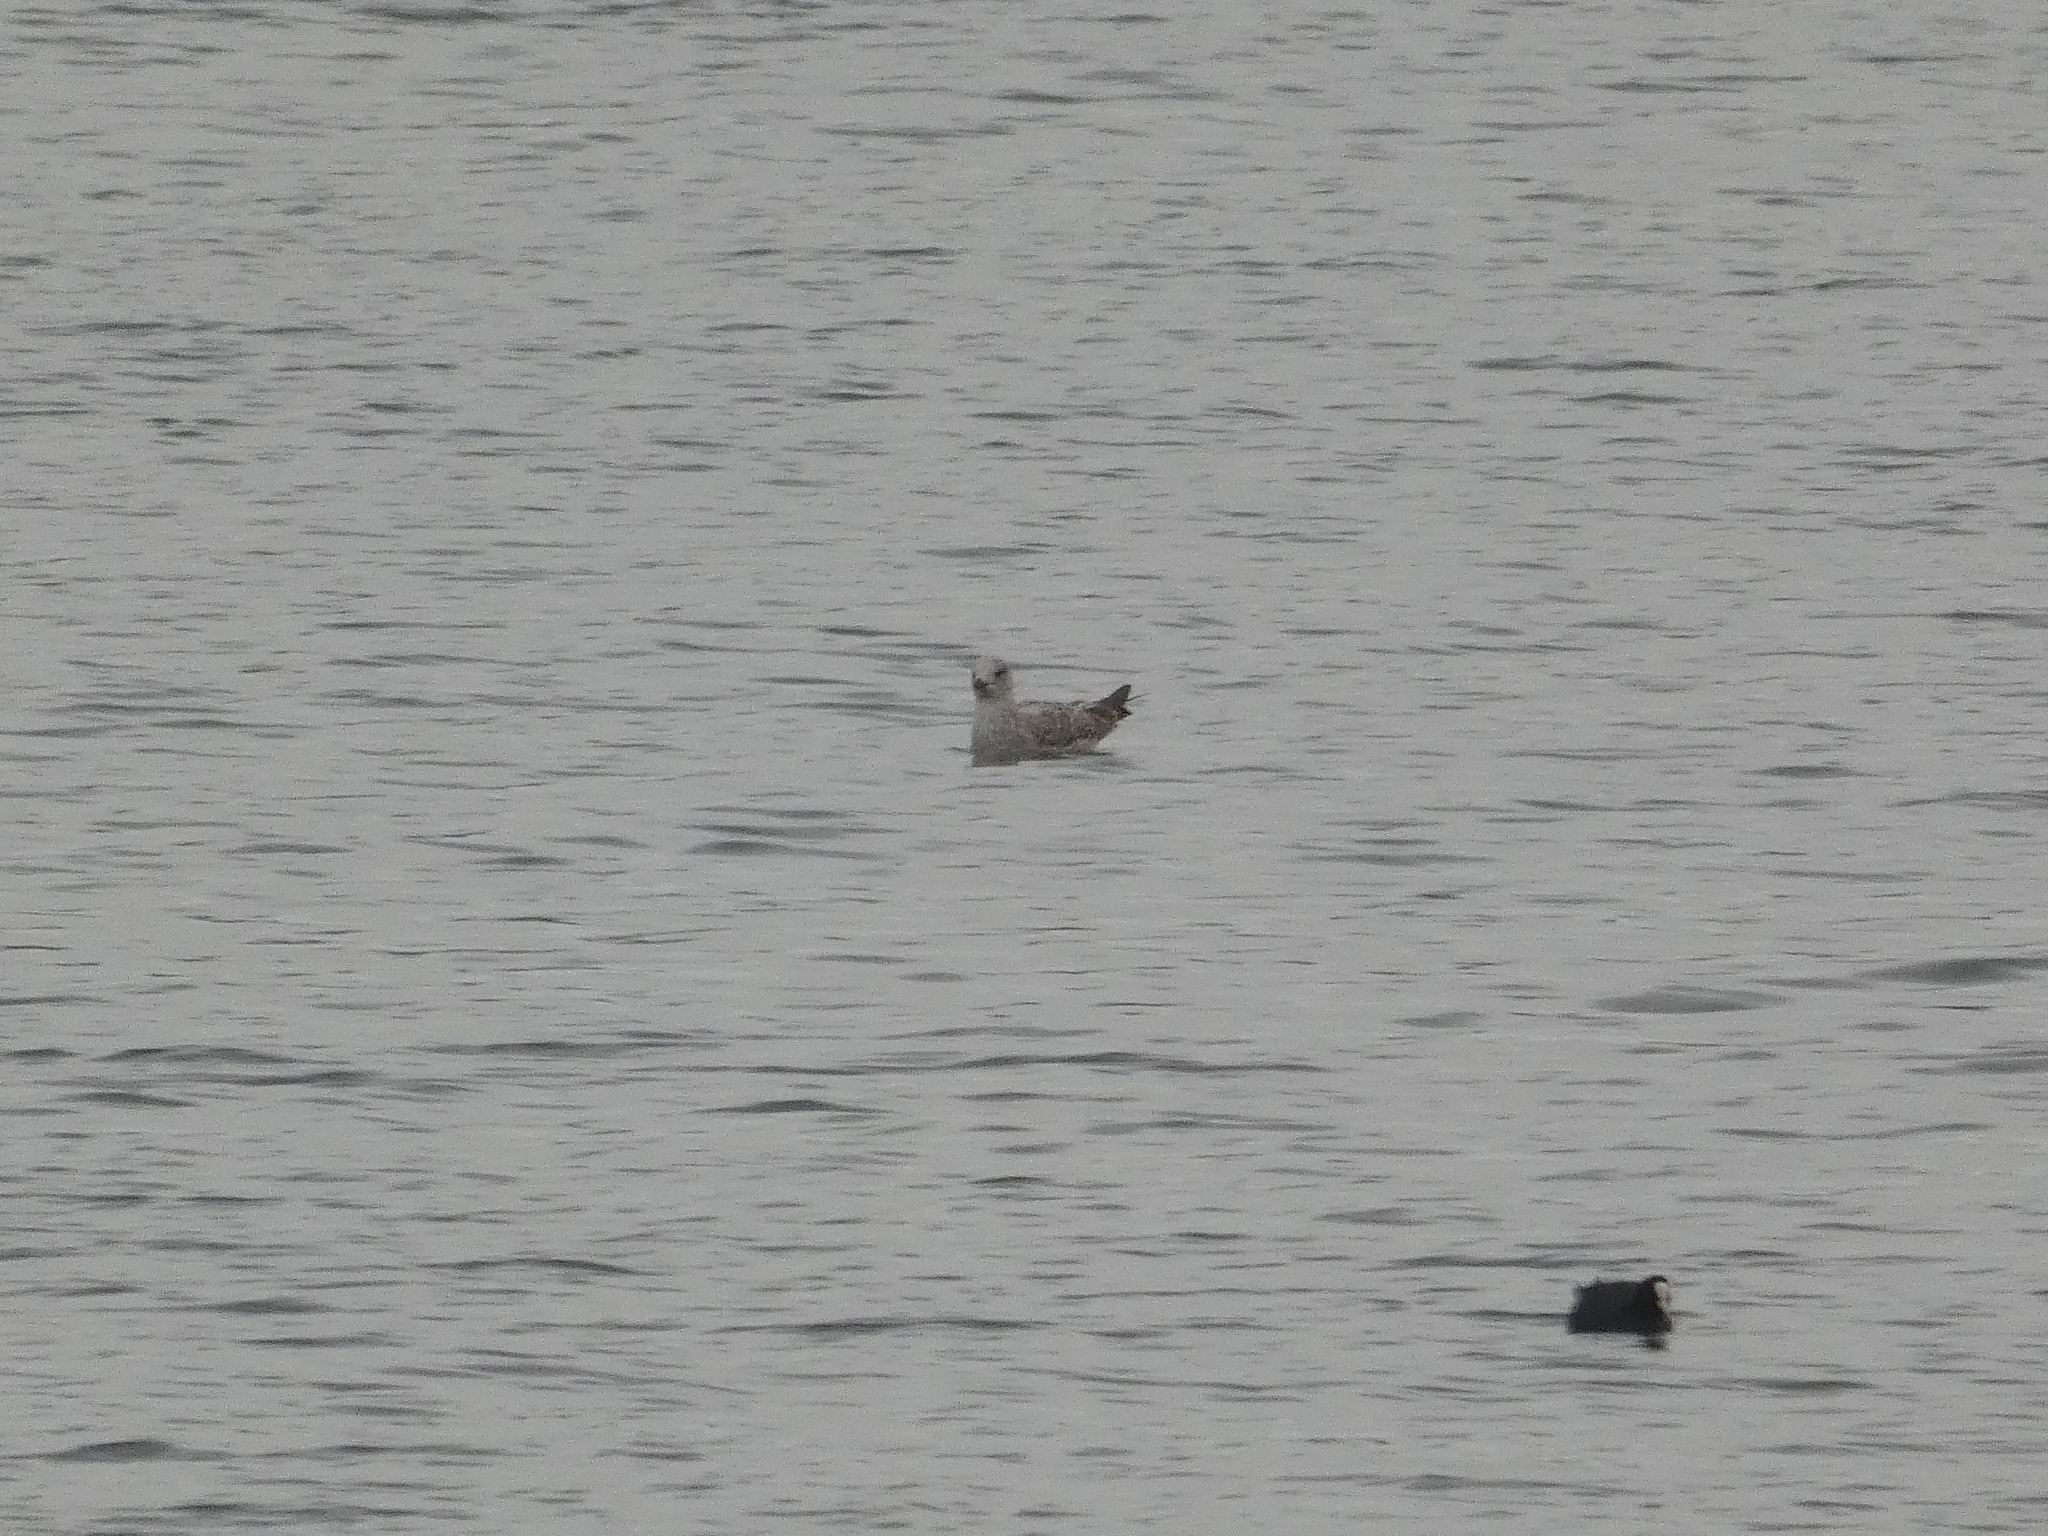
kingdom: Animalia
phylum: Chordata
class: Aves
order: Charadriiformes
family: Laridae
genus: Larus
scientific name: Larus michahellis
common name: Yellow-legged gull
